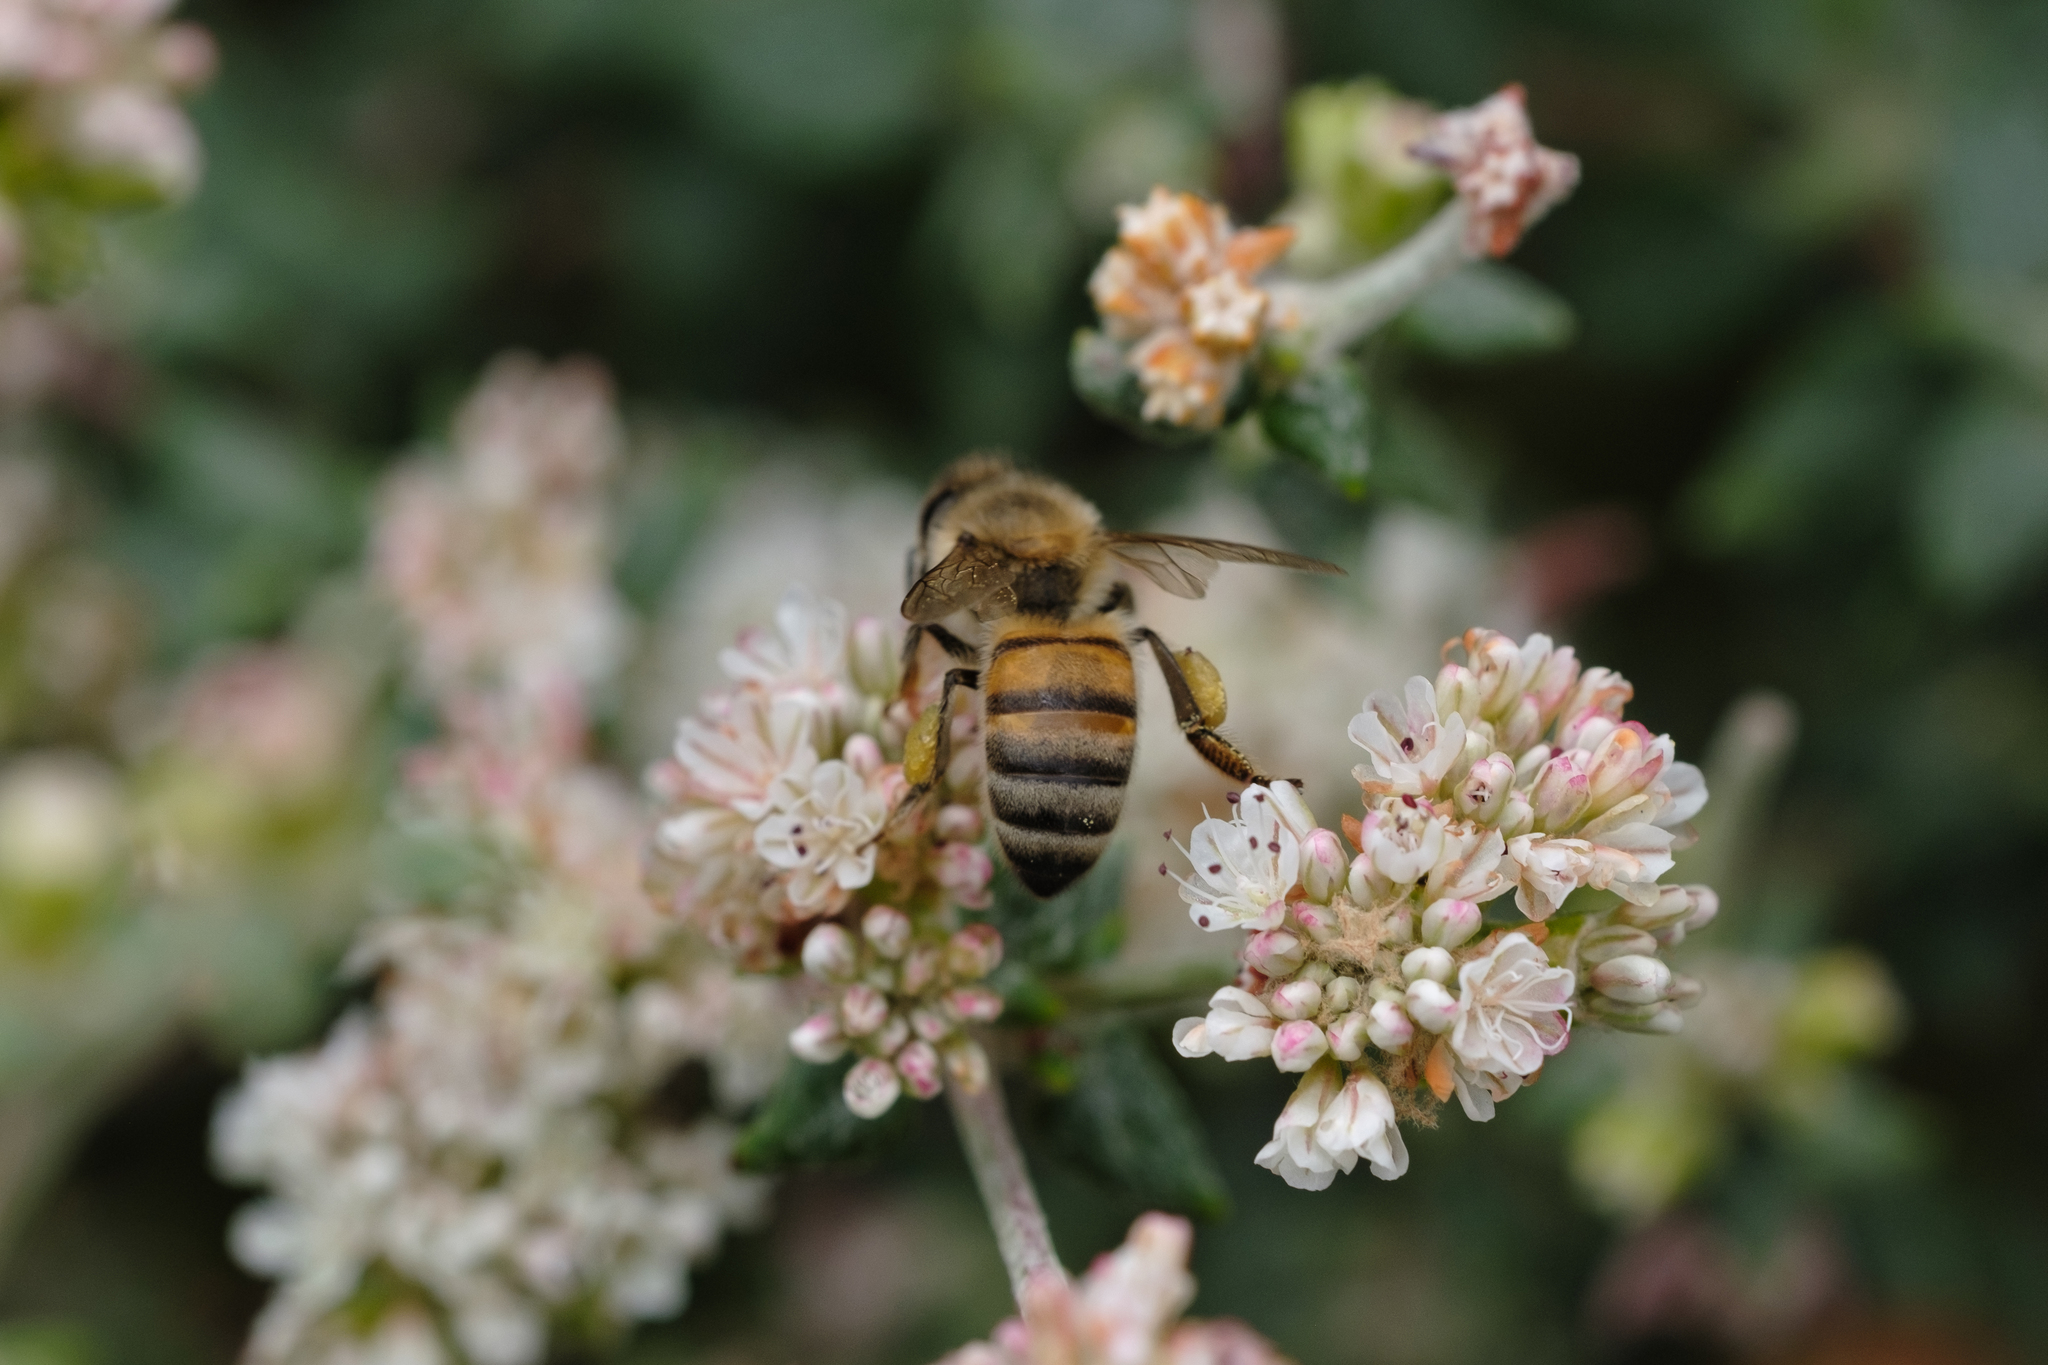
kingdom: Animalia
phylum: Arthropoda
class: Insecta
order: Hymenoptera
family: Apidae
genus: Apis
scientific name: Apis mellifera
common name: Honey bee
